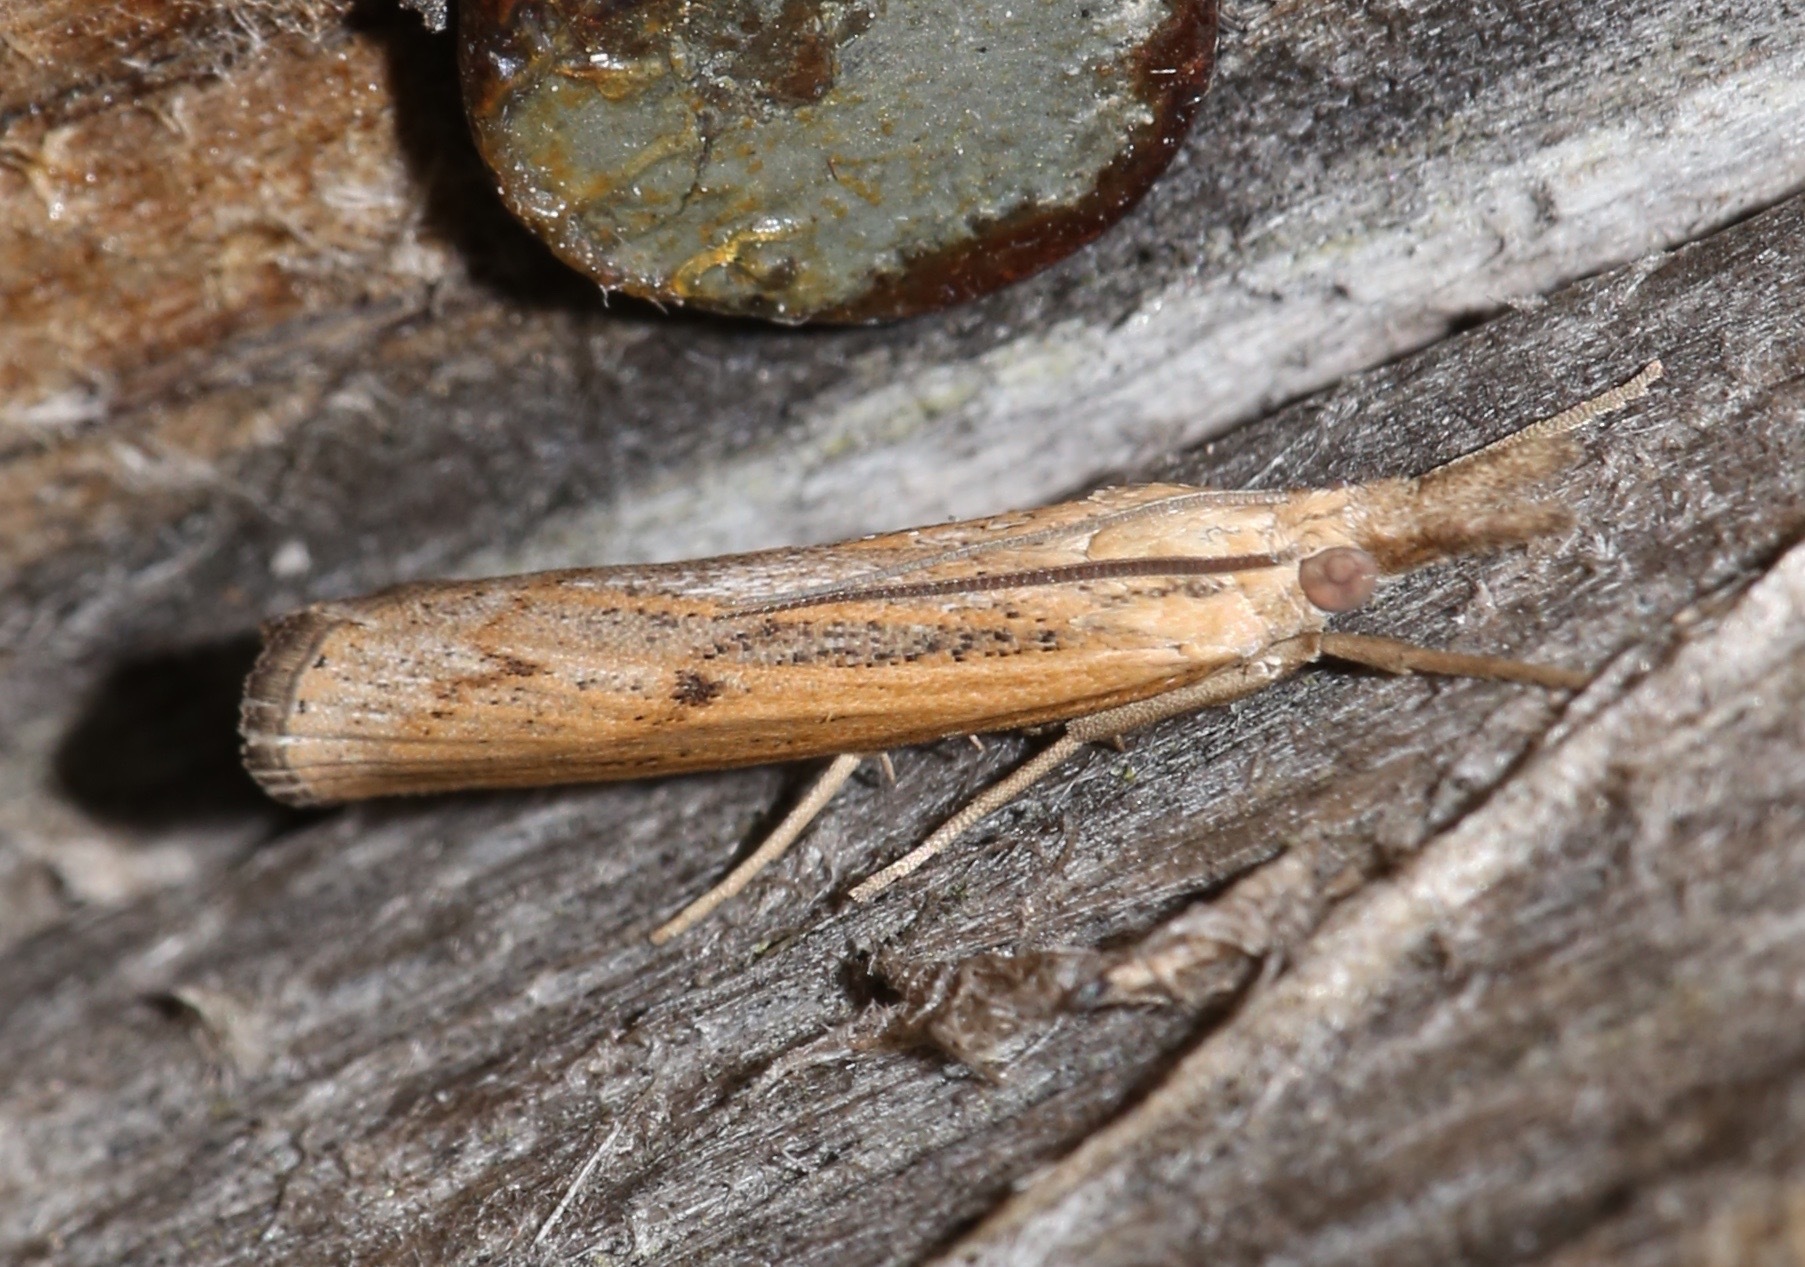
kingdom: Animalia
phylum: Arthropoda
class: Insecta
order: Lepidoptera
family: Crambidae
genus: Pediasia
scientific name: Pediasia trisecta
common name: Sod webworm moth
